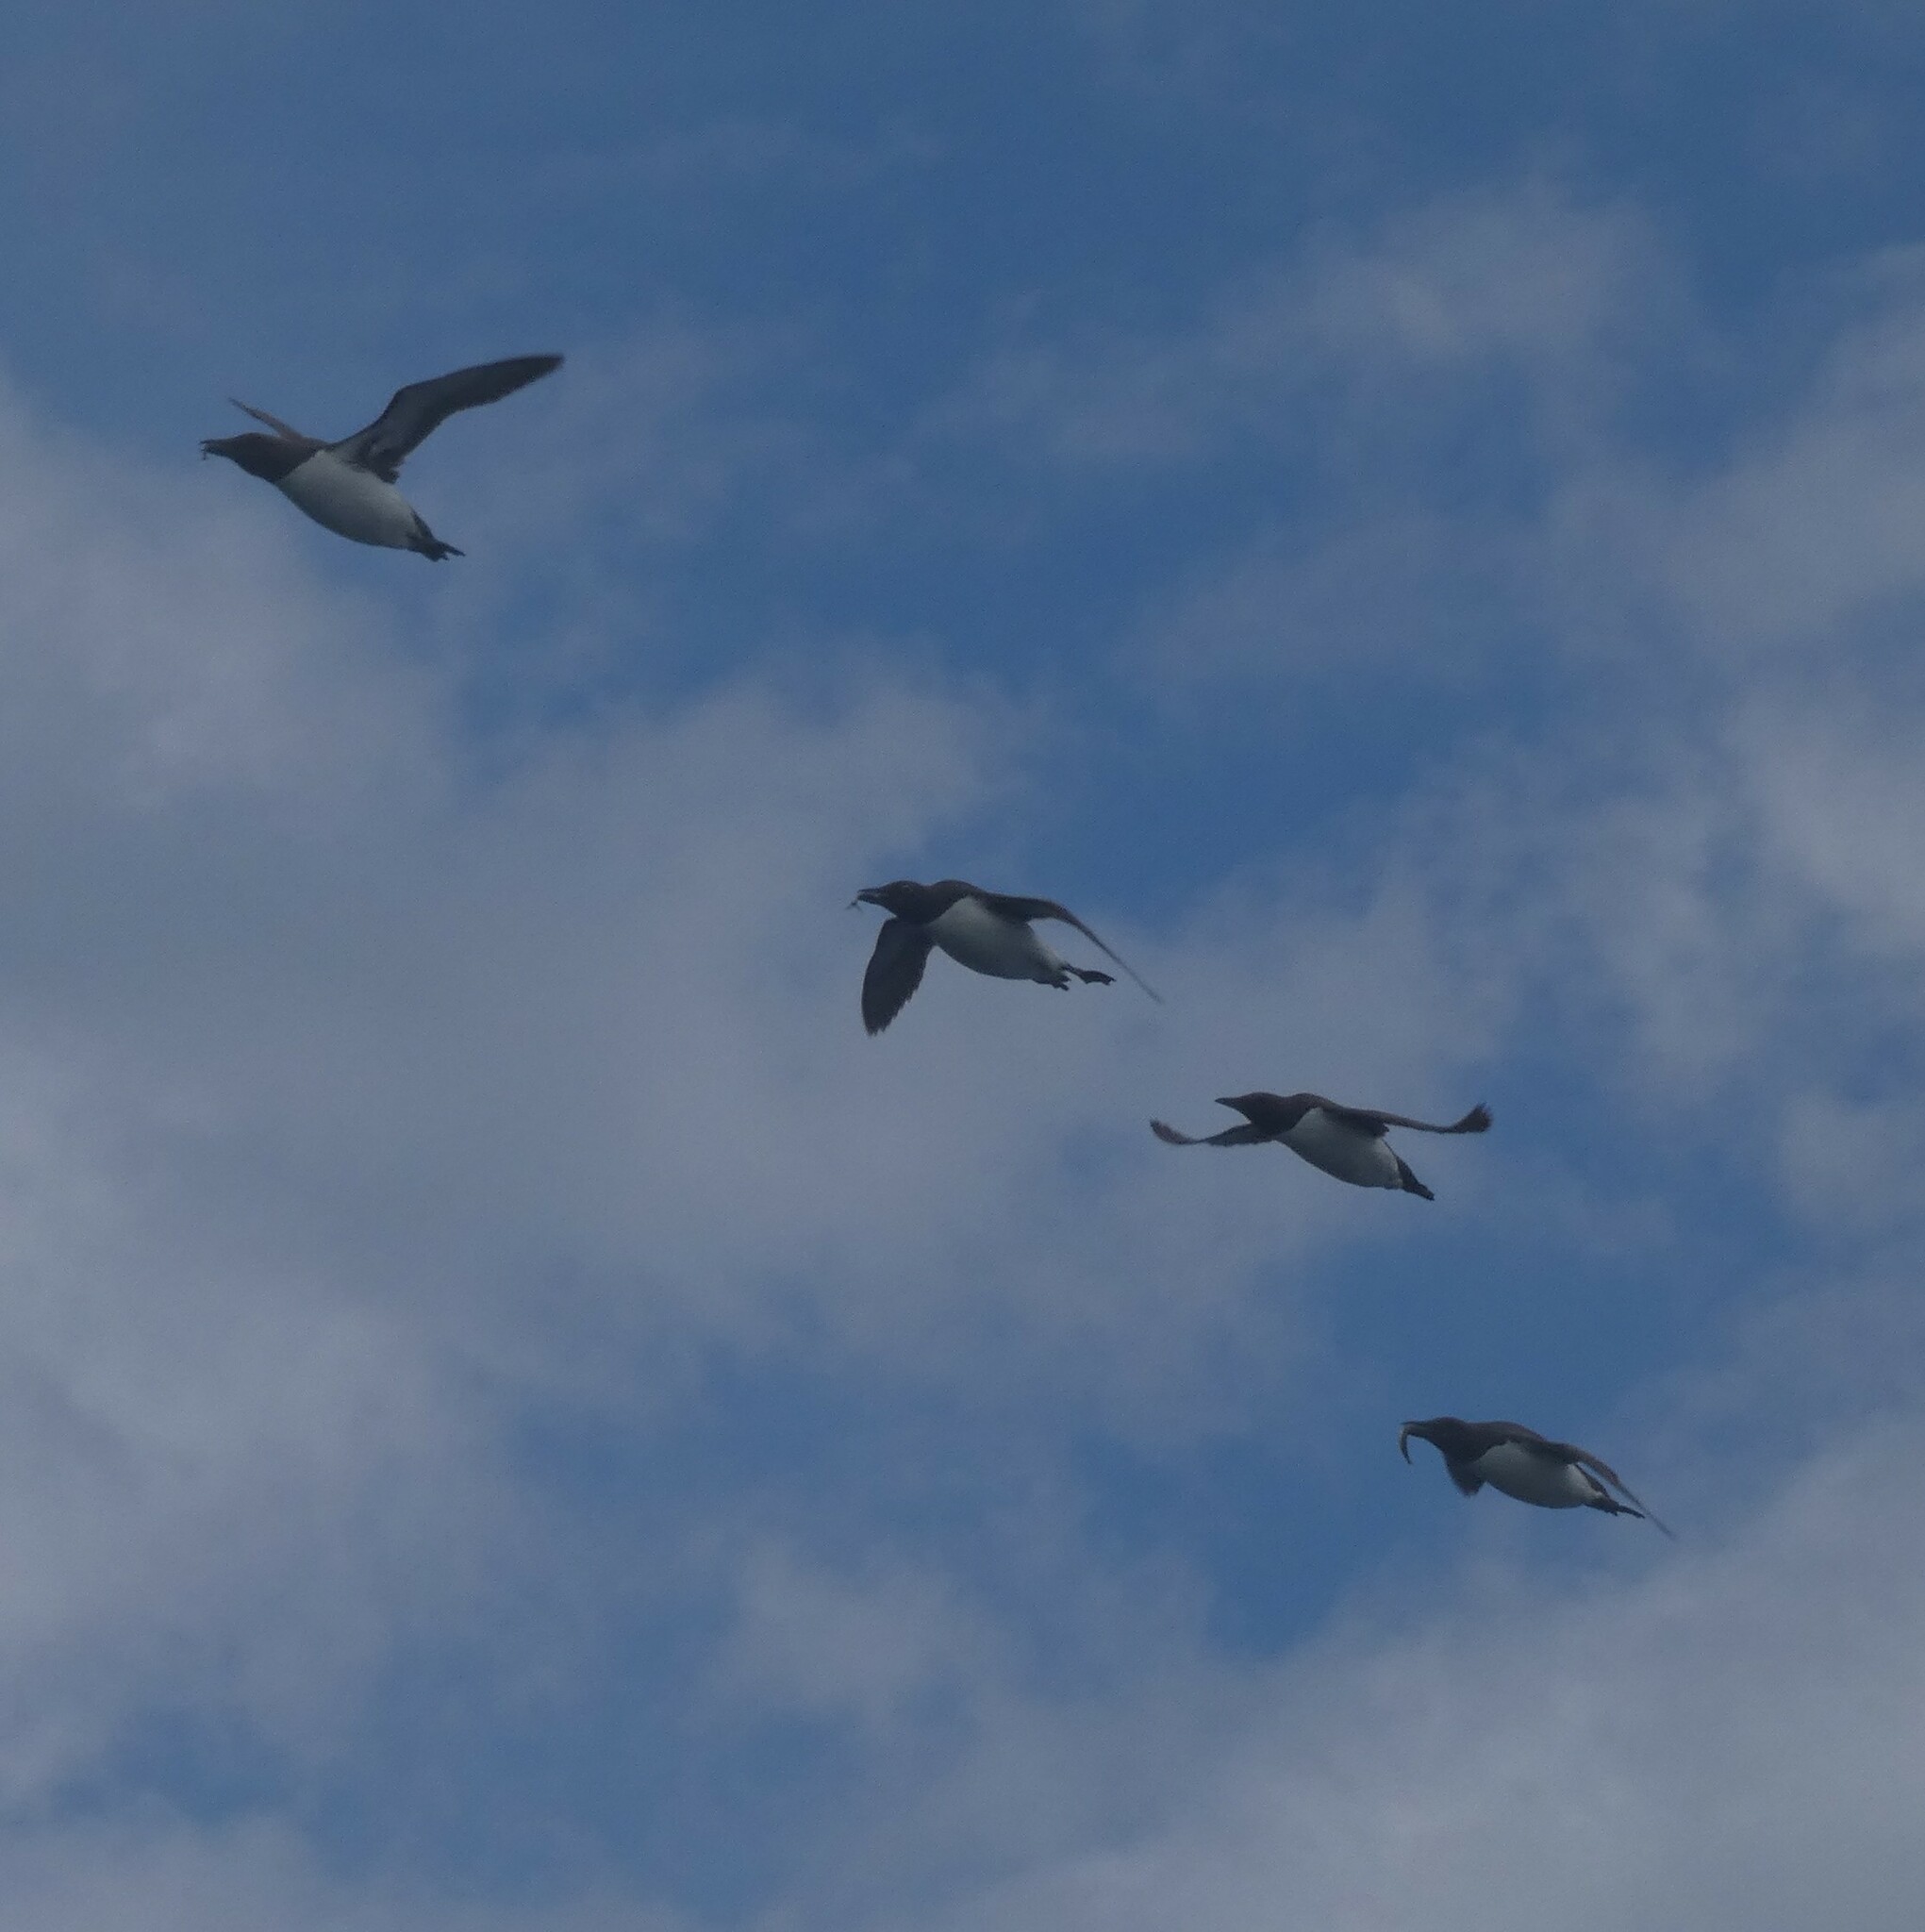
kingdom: Animalia
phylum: Chordata
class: Aves
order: Charadriiformes
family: Alcidae
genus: Alca
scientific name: Alca torda
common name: Razorbill
